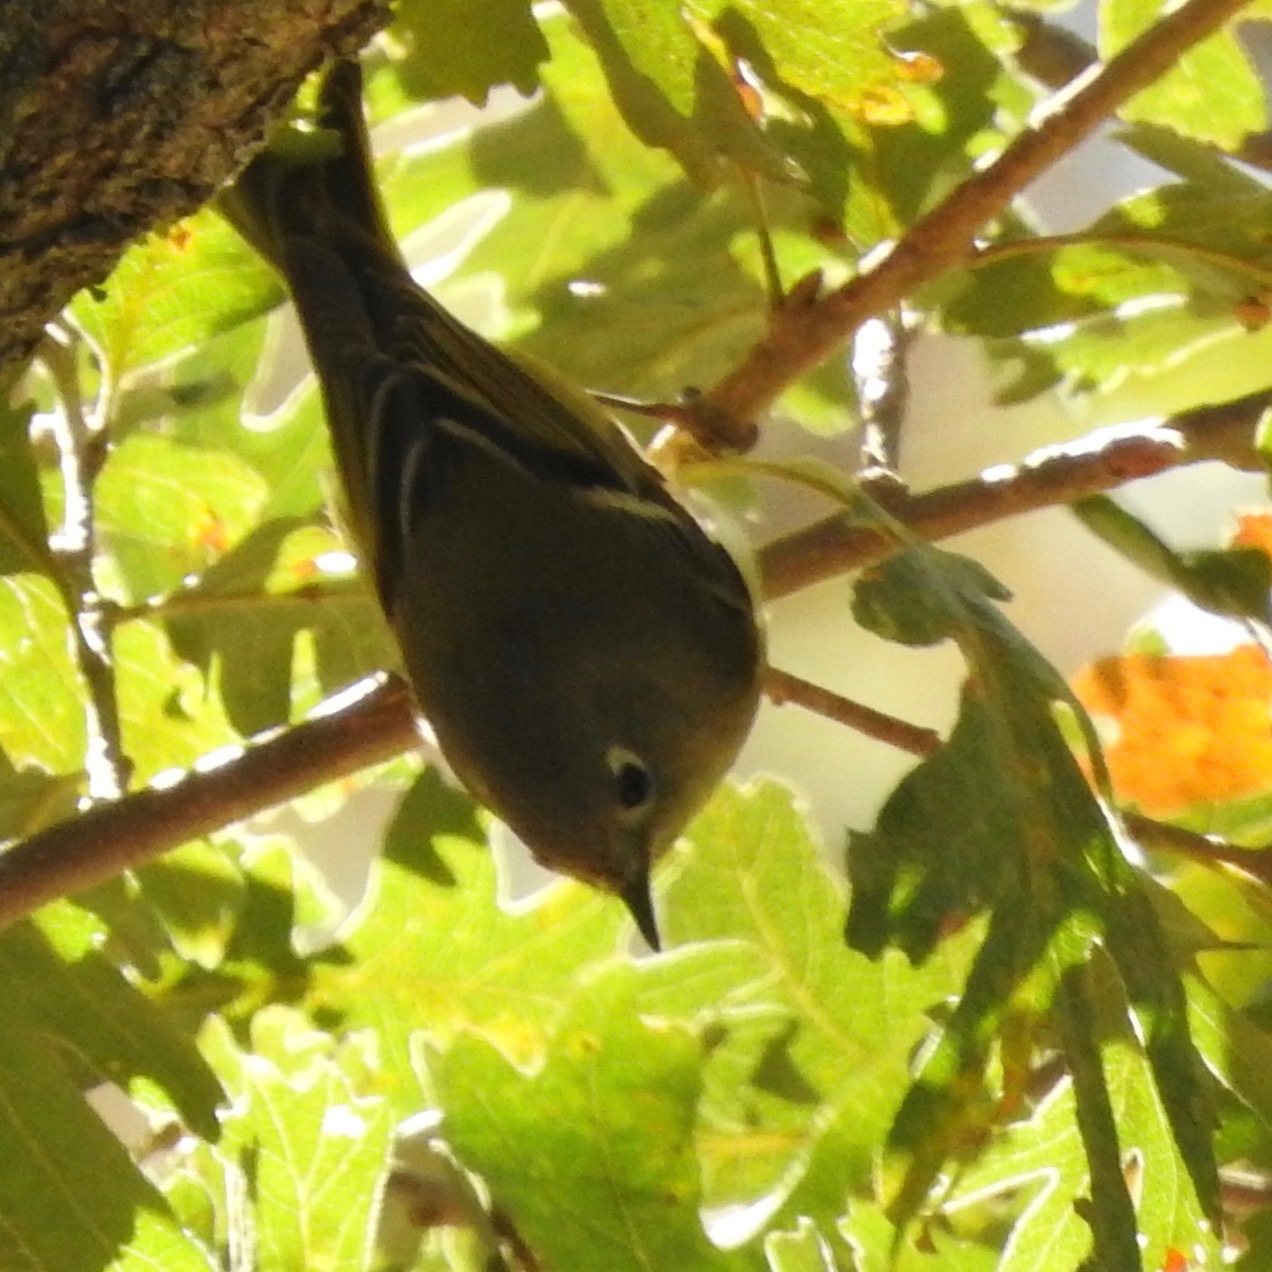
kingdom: Animalia
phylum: Chordata
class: Aves
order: Passeriformes
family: Regulidae
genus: Regulus
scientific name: Regulus calendula
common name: Ruby-crowned kinglet
